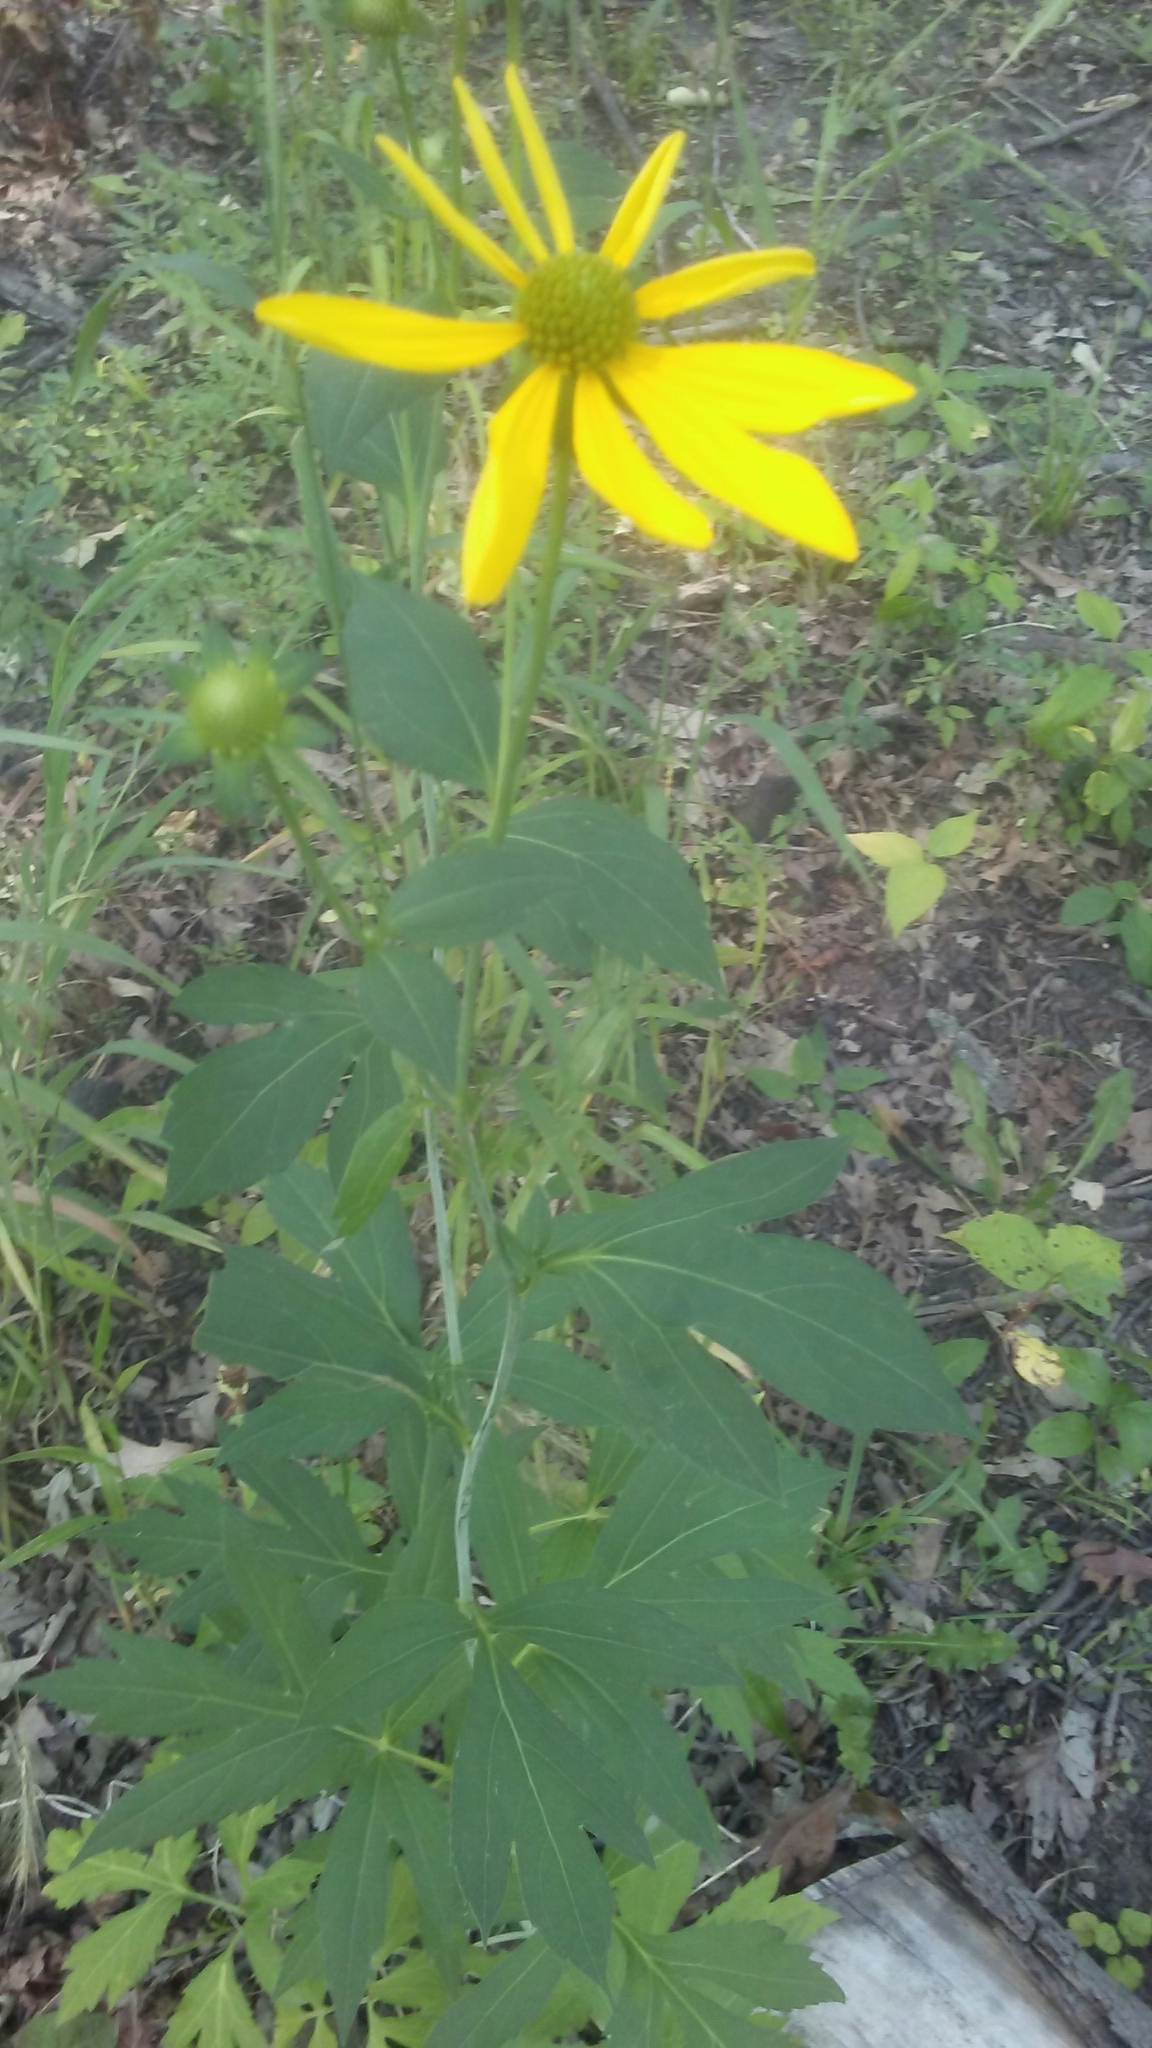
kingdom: Plantae
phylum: Tracheophyta
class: Magnoliopsida
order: Asterales
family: Asteraceae
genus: Rudbeckia
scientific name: Rudbeckia laciniata
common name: Coneflower
